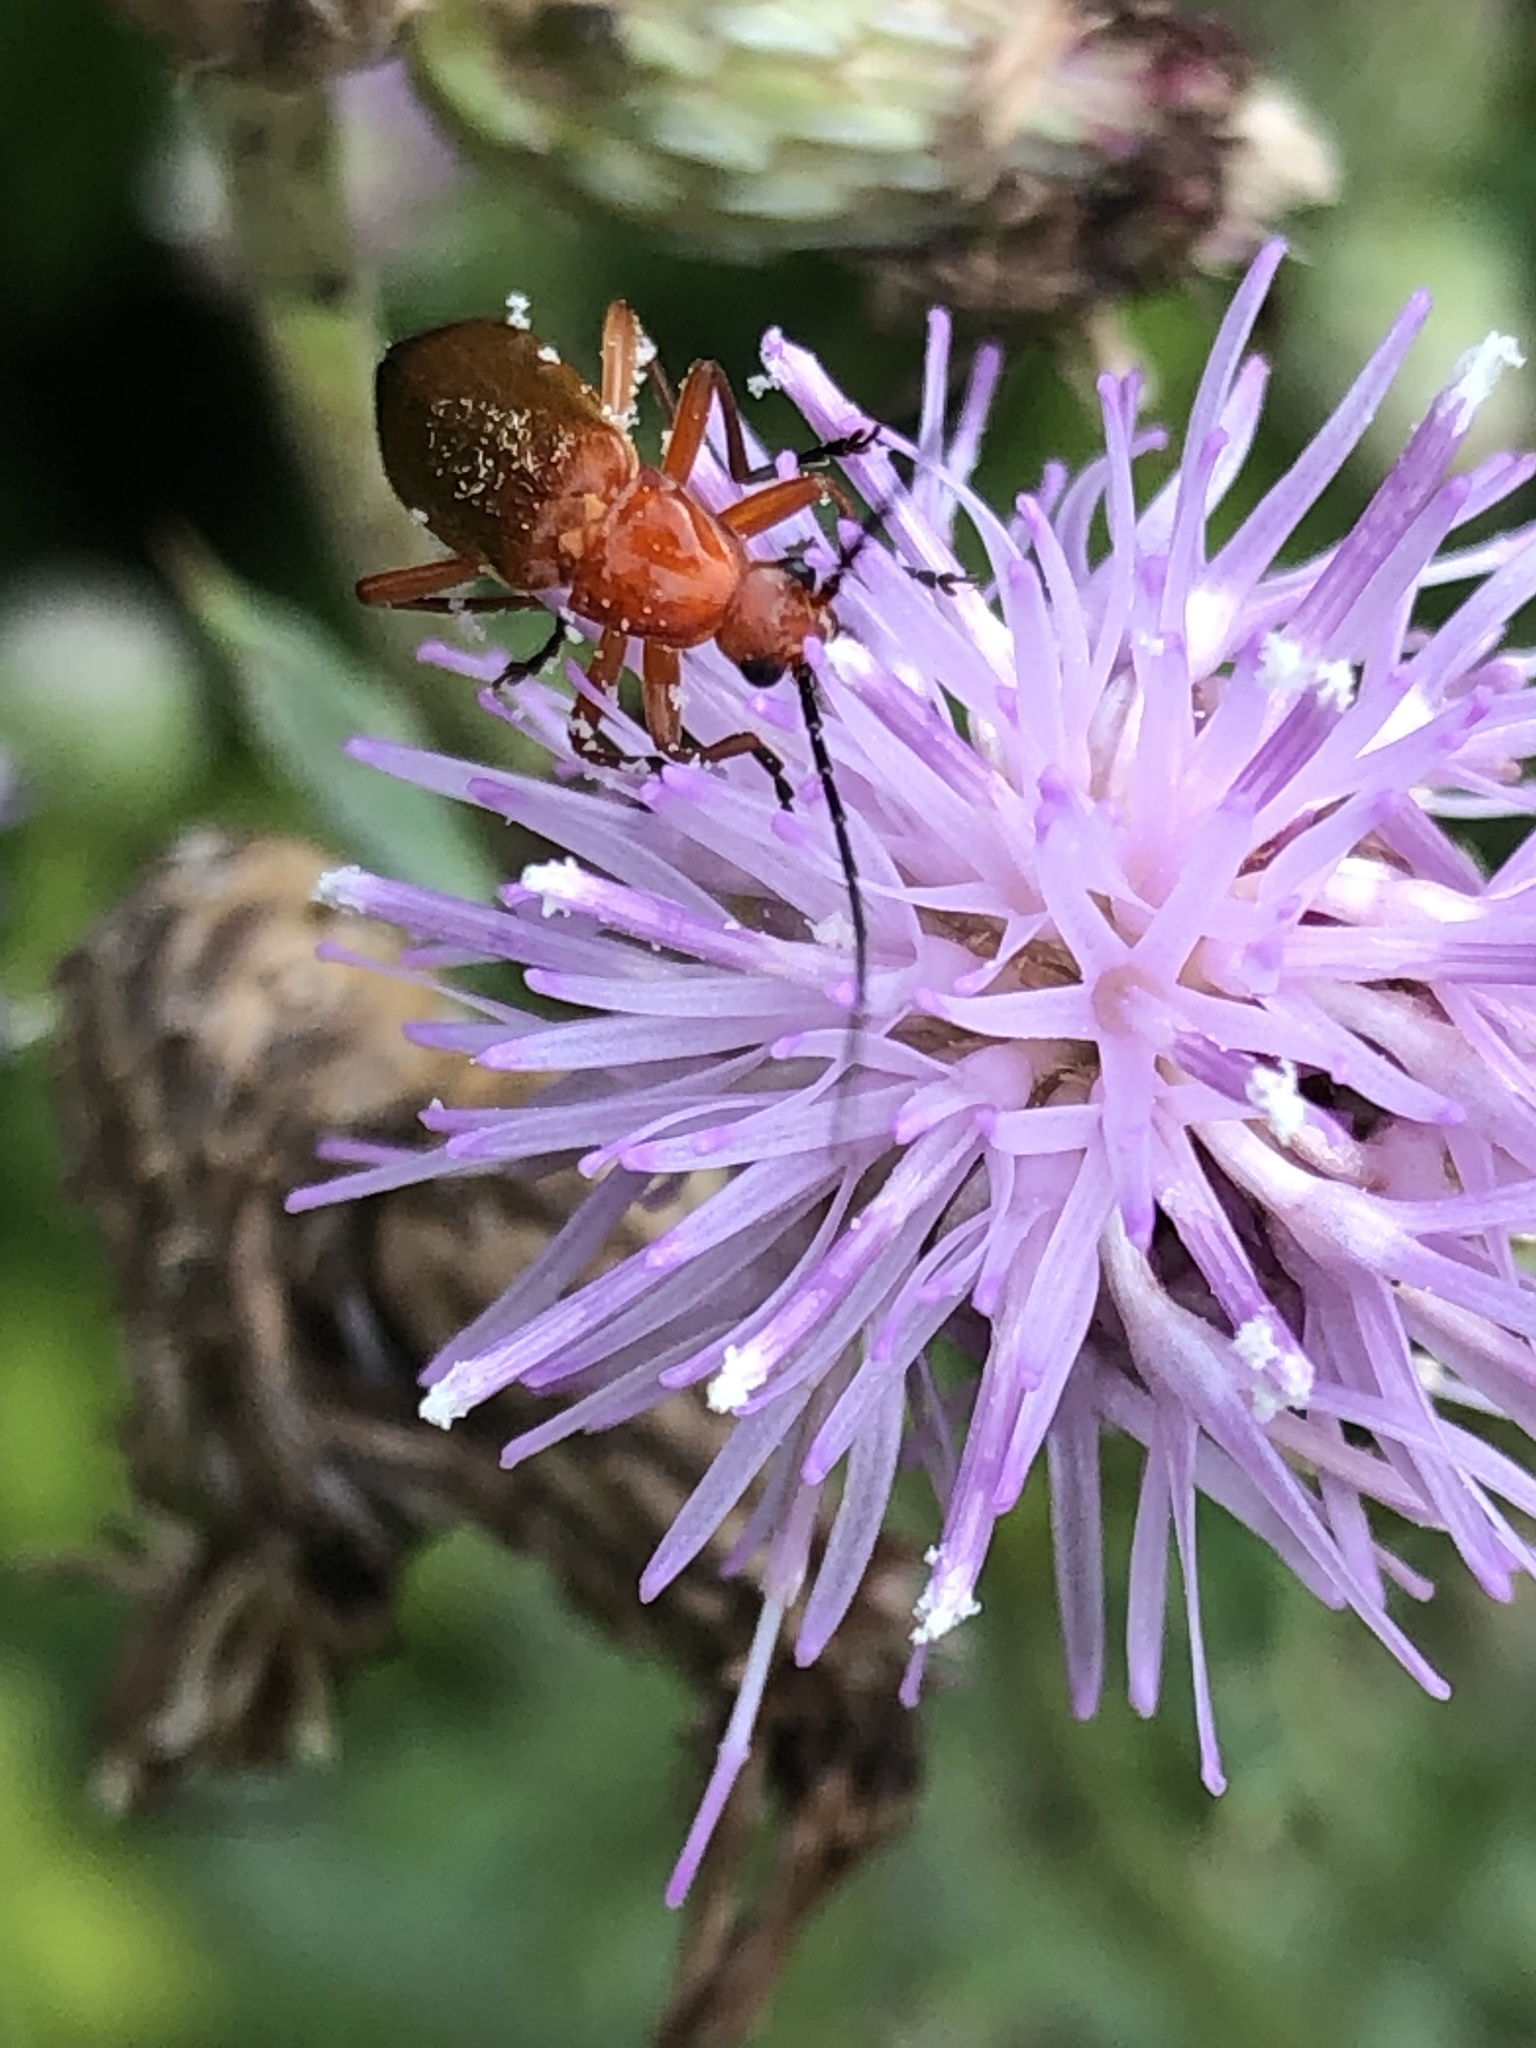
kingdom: Animalia
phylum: Arthropoda
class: Insecta
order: Coleoptera
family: Cantharidae
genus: Rhagonycha
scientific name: Rhagonycha fulva
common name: Common red soldier beetle
